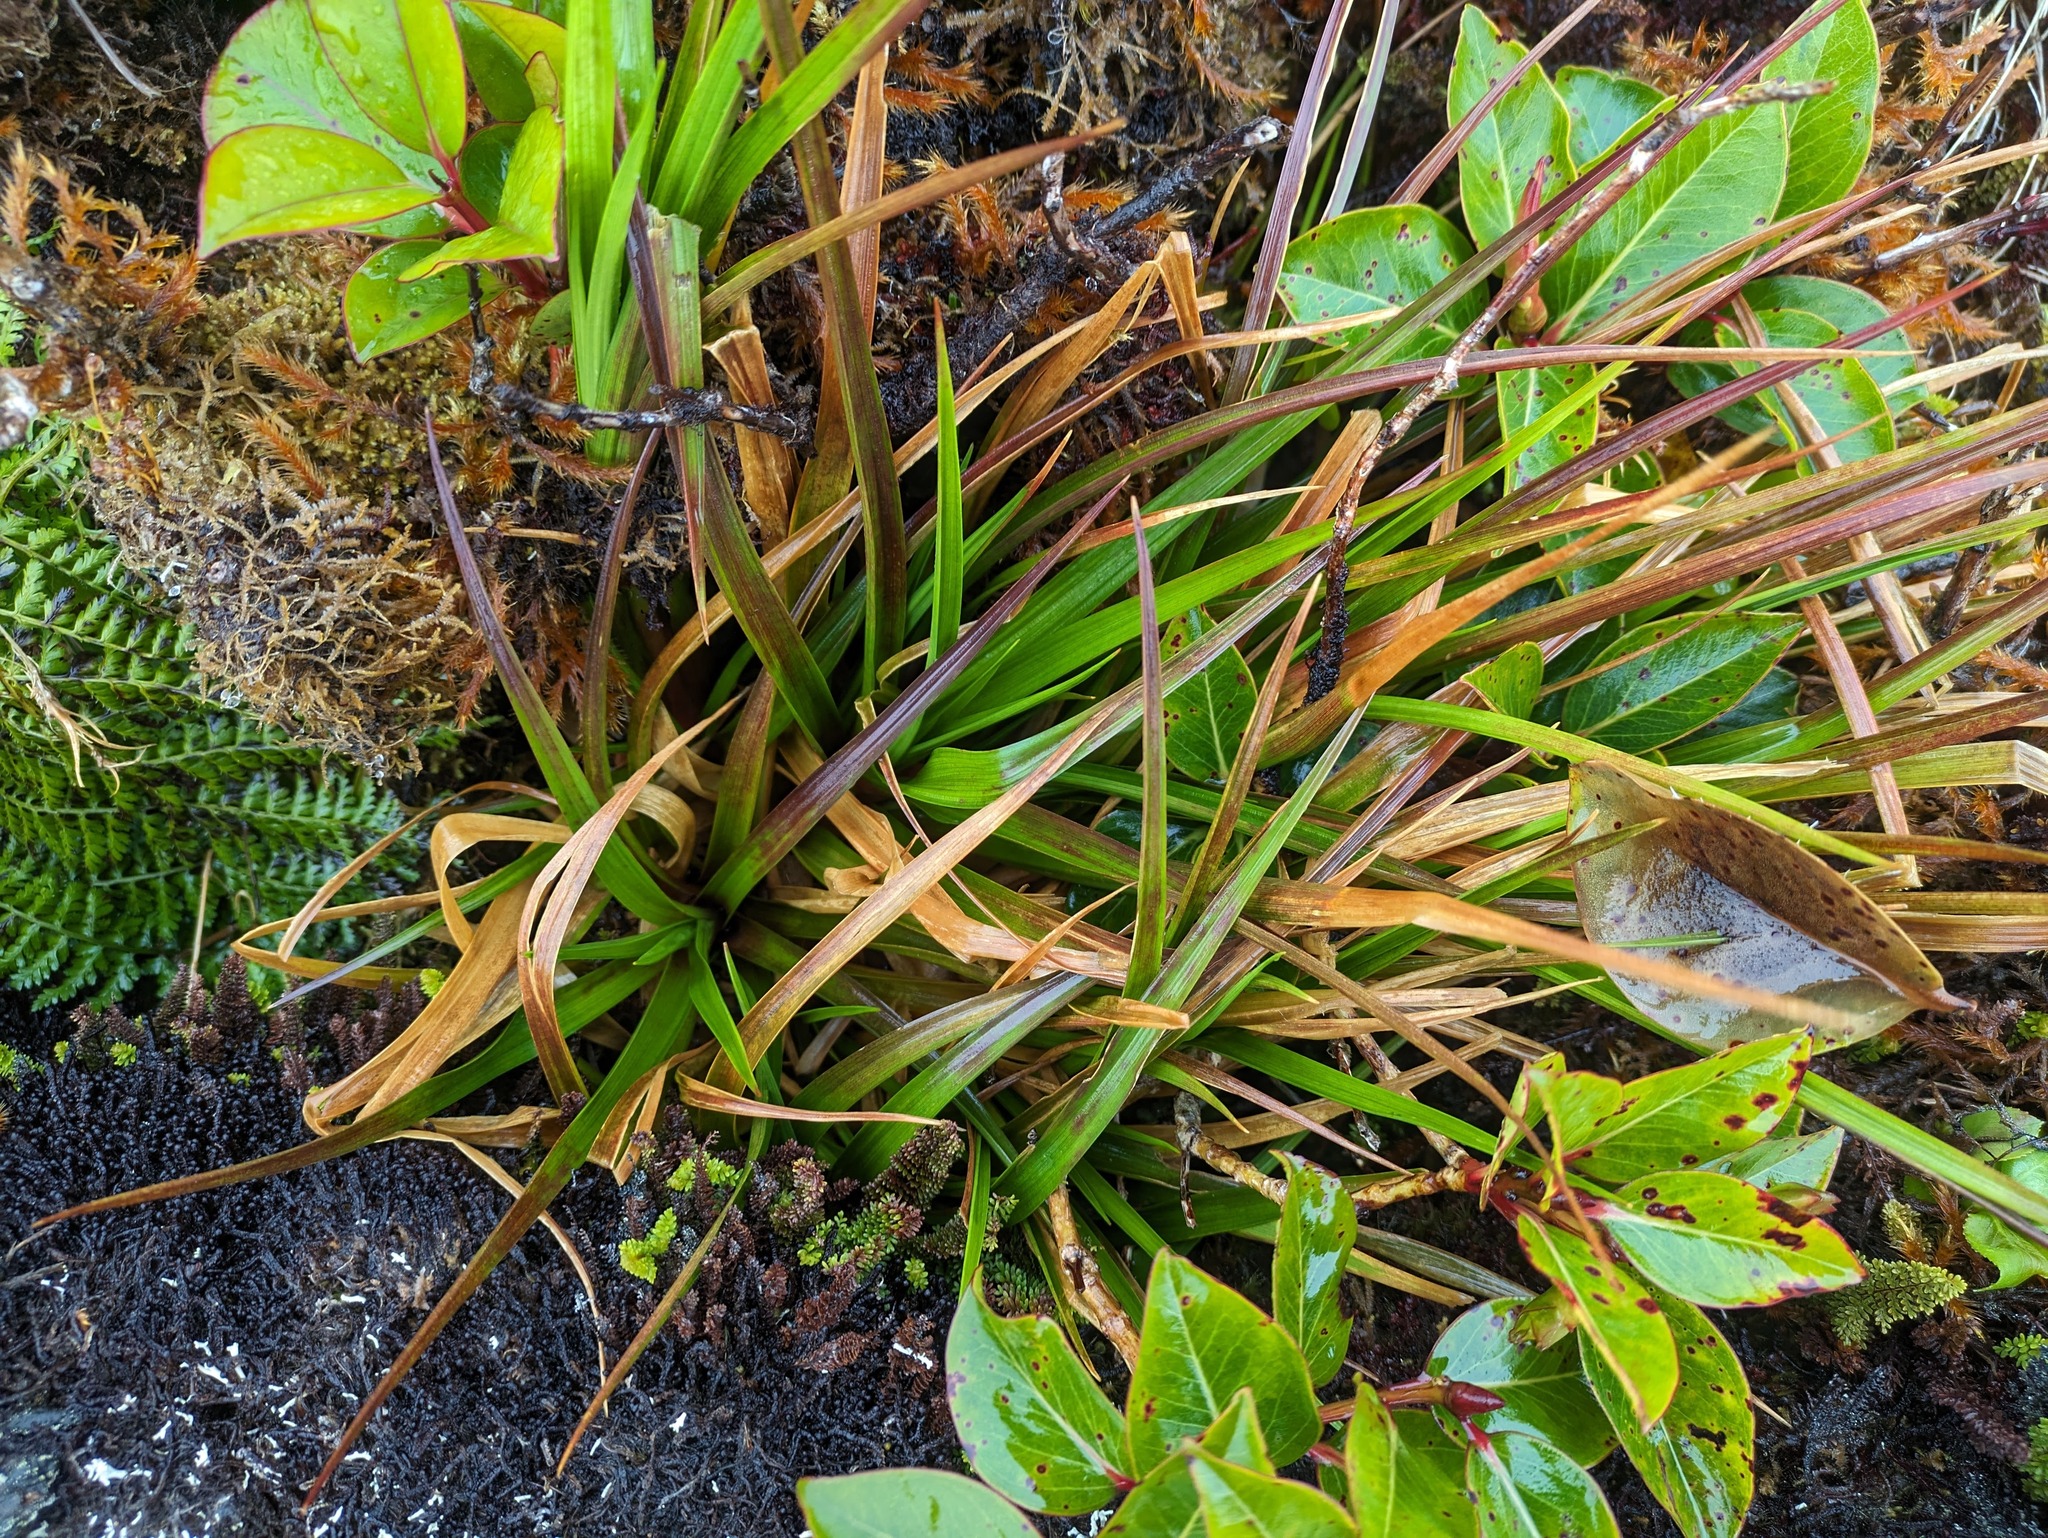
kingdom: Plantae
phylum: Tracheophyta
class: Liliopsida
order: Poales
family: Juncaceae
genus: Juncus
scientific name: Juncus planifolius
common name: Broadleaf rush
